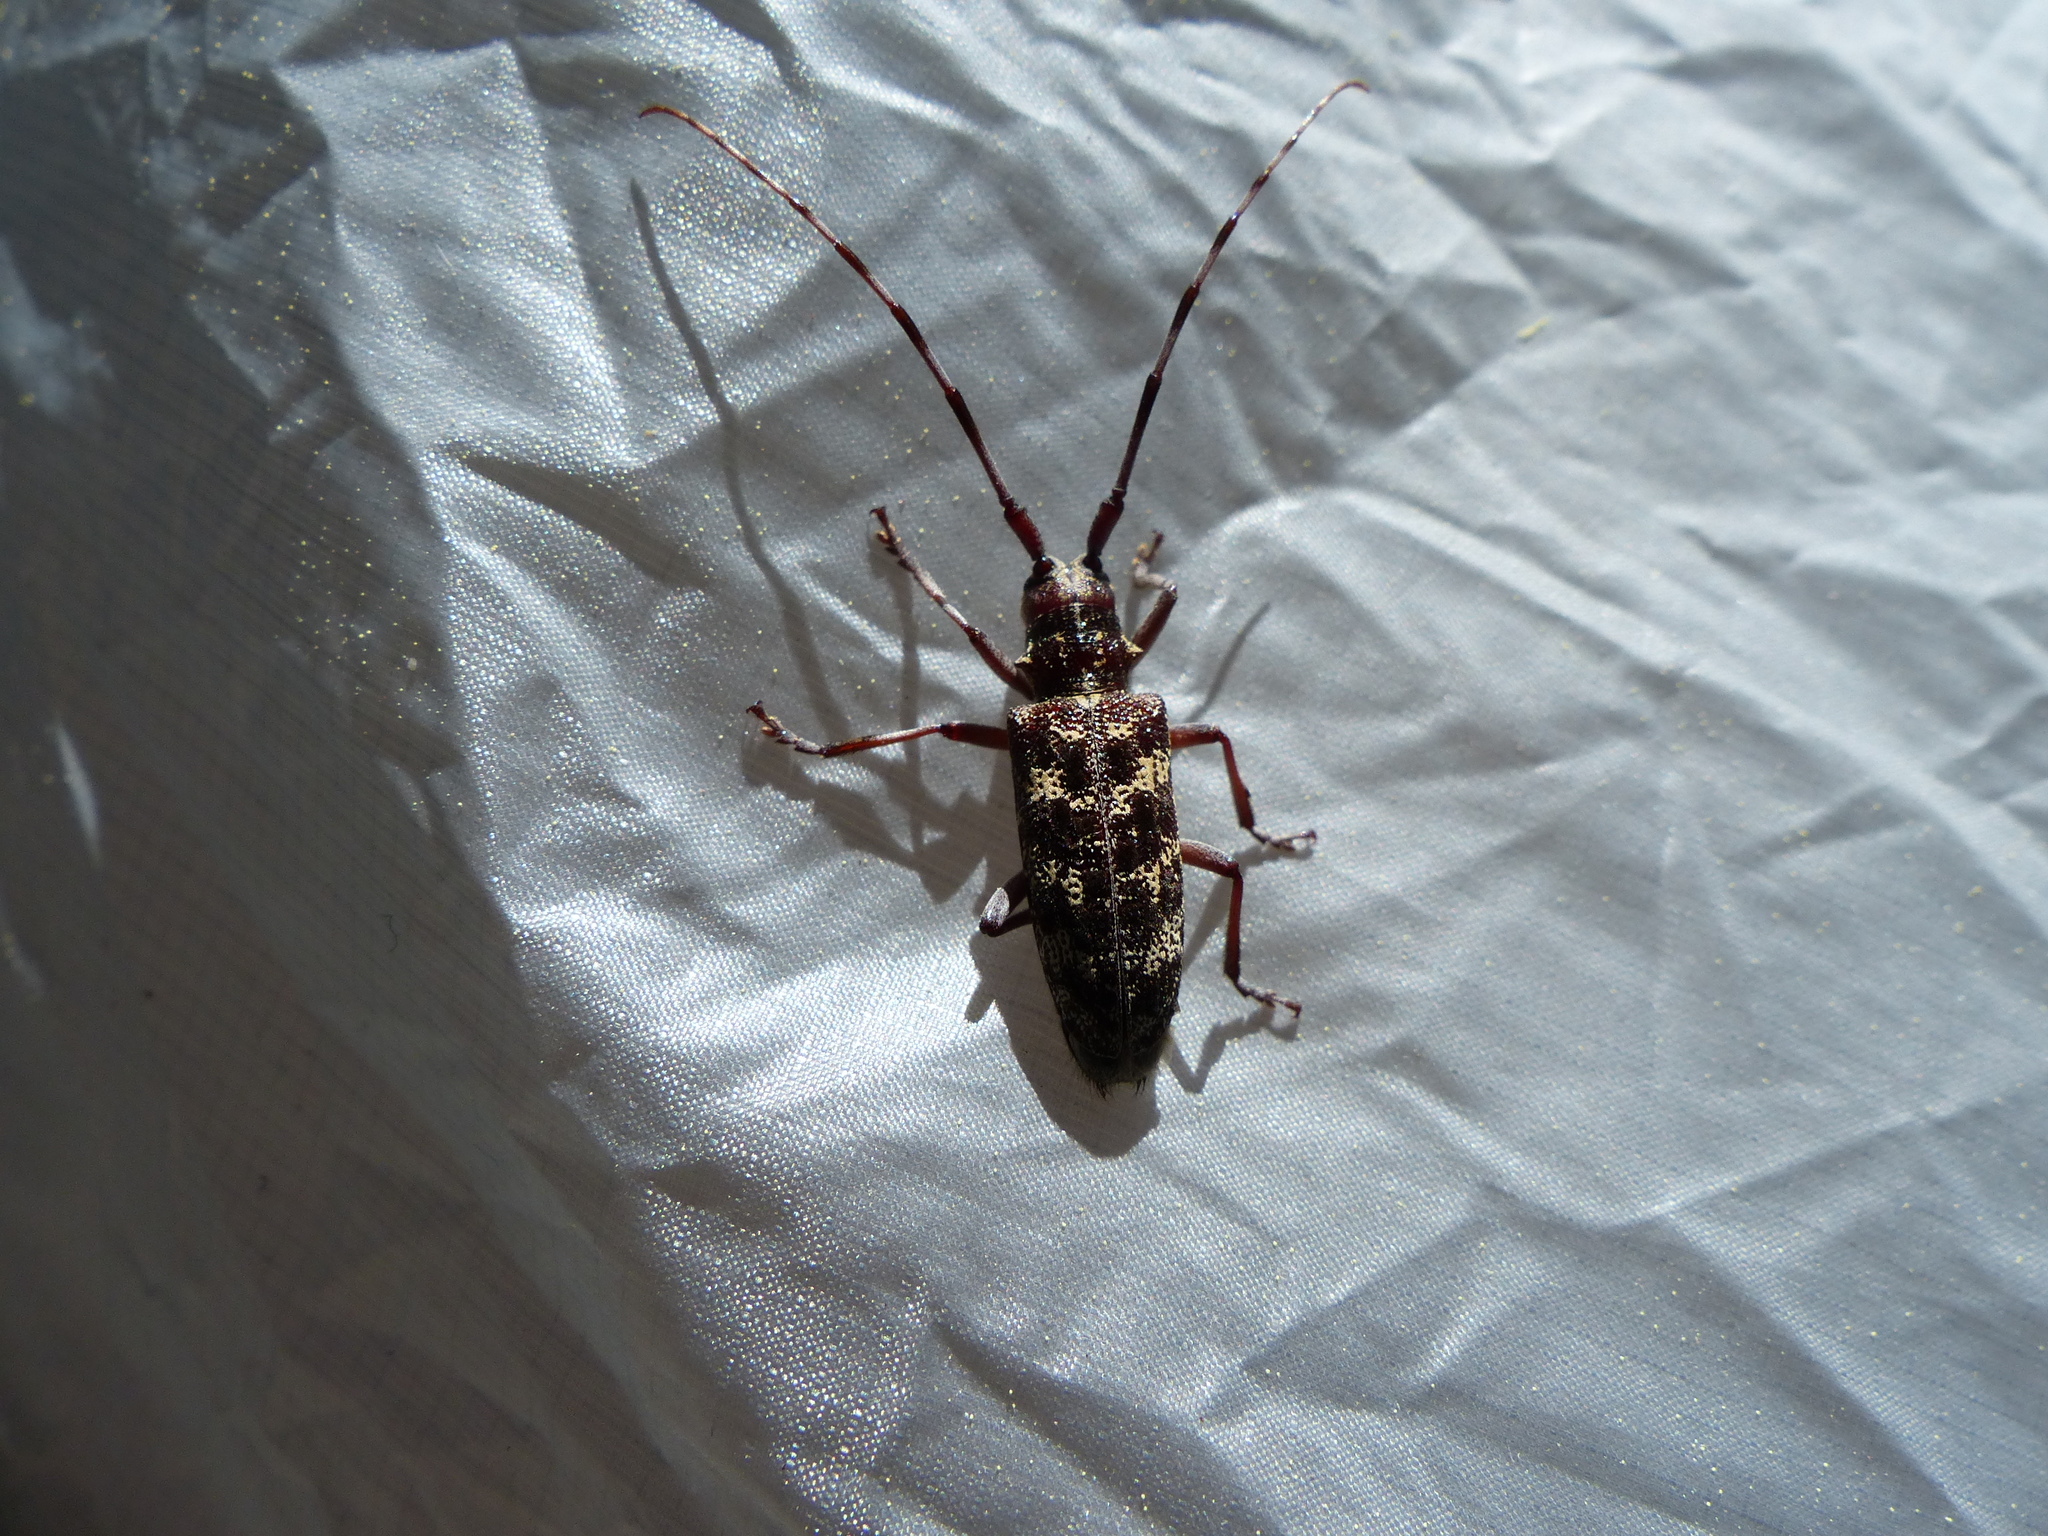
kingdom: Animalia
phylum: Arthropoda
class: Insecta
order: Coleoptera
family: Cerambycidae
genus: Monochamus
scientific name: Monochamus clamator
